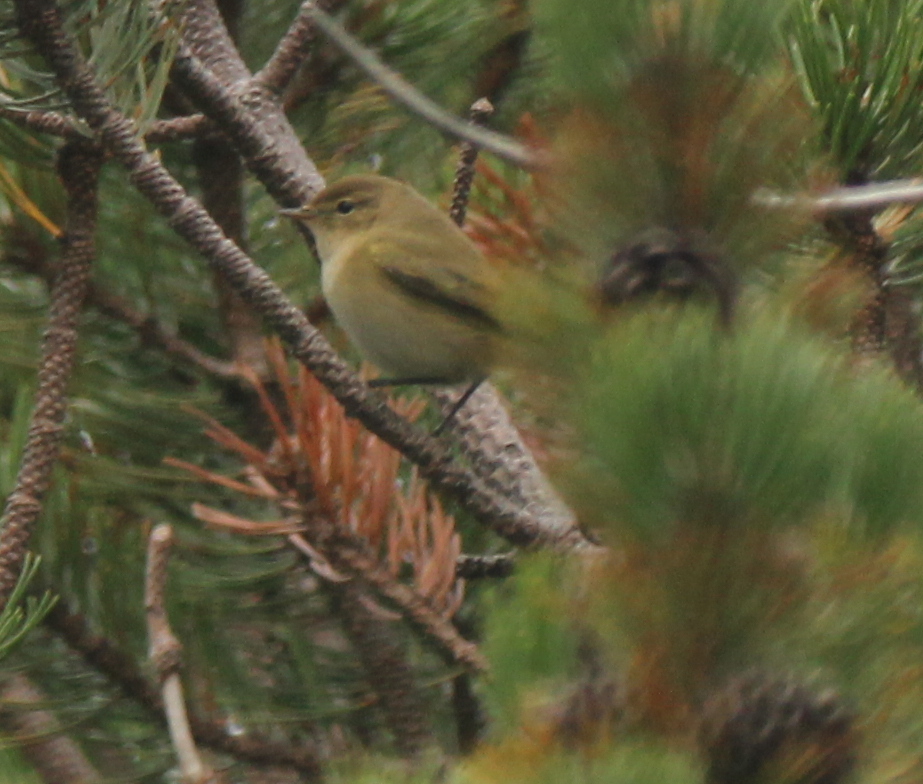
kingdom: Animalia
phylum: Chordata
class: Aves
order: Passeriformes
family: Phylloscopidae
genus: Phylloscopus
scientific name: Phylloscopus collybita
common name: Common chiffchaff
